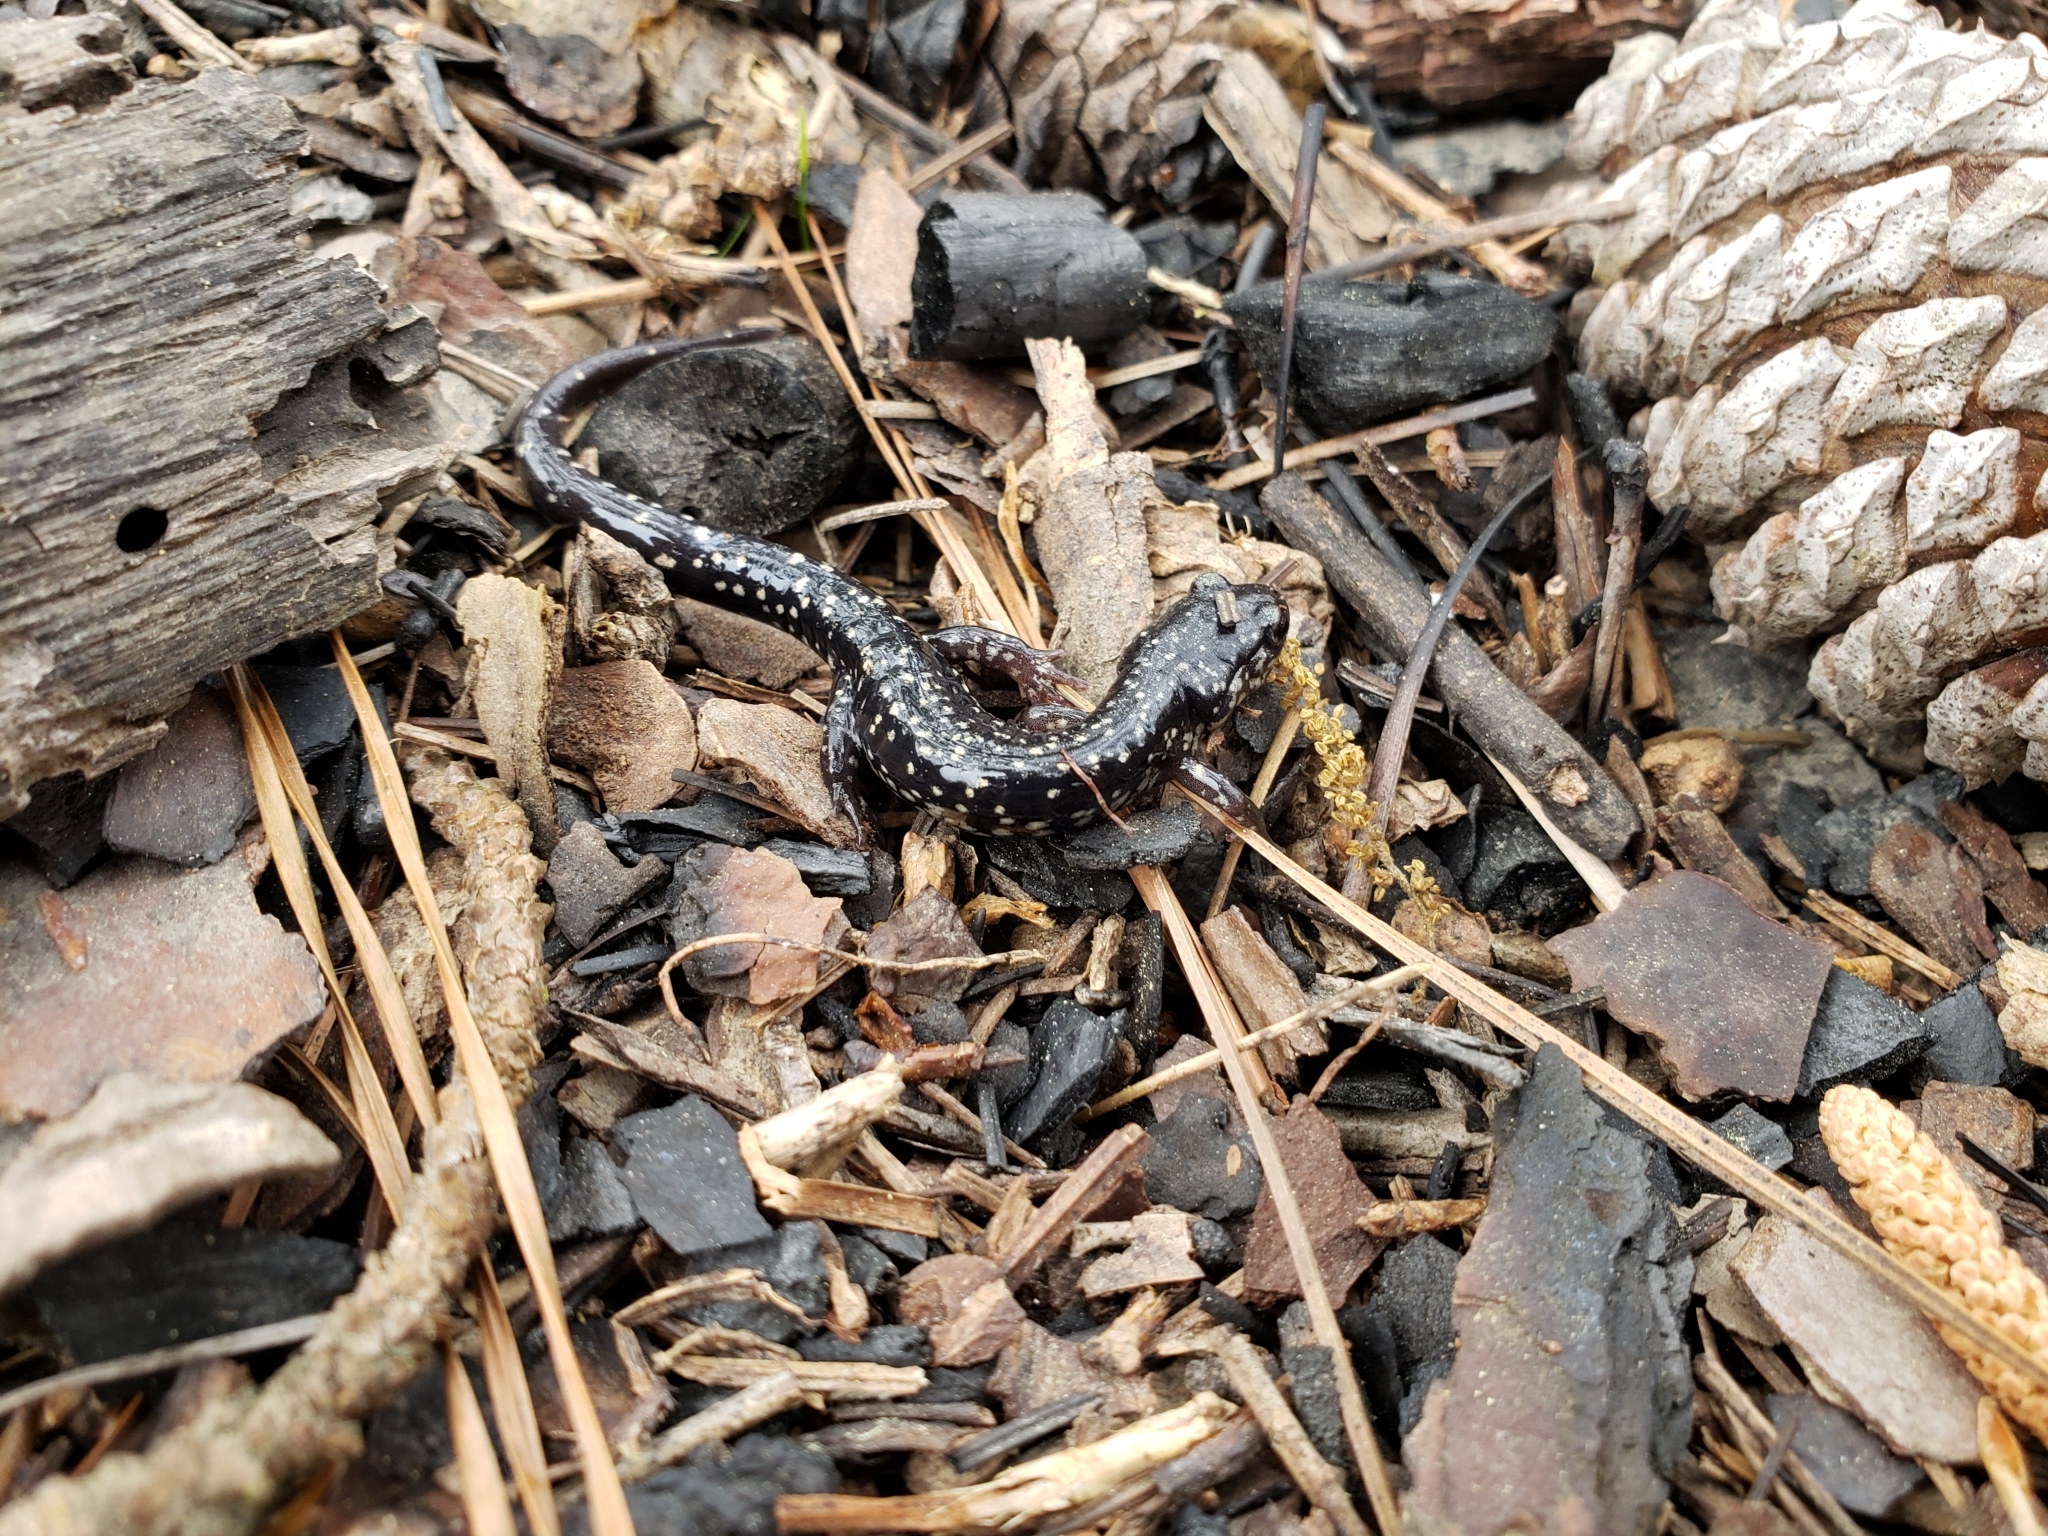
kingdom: Animalia
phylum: Chordata
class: Amphibia
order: Caudata
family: Plethodontidae
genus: Plethodon
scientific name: Plethodon mississippi
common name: Mississippi slimy salamander
